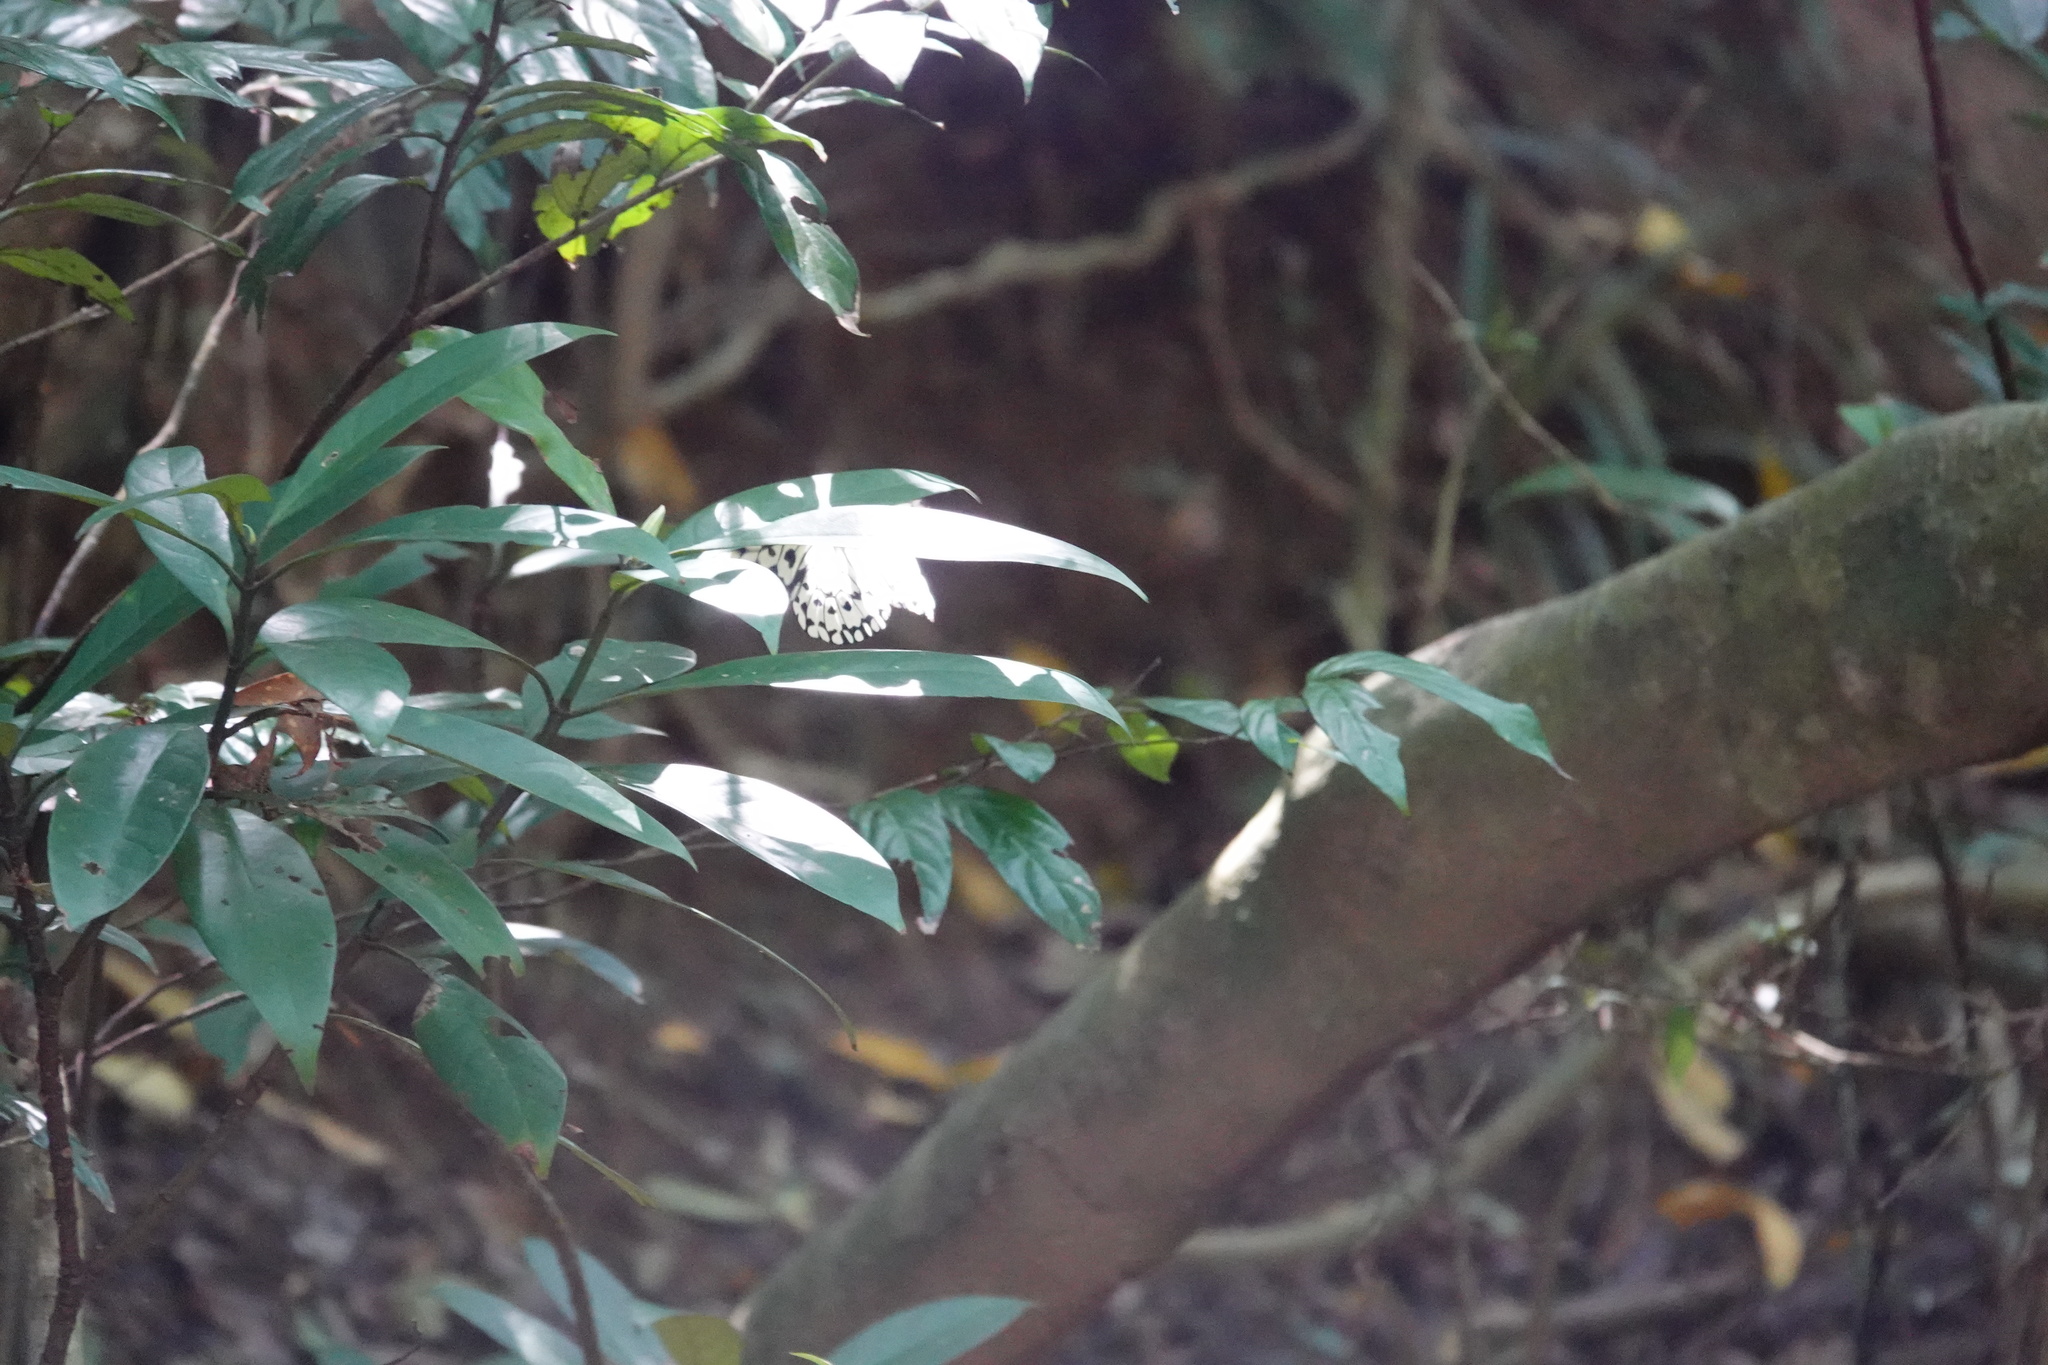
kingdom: Animalia
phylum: Arthropoda
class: Insecta
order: Lepidoptera
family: Nymphalidae
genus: Idea
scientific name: Idea leuconoe
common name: Rice paper butterfly
